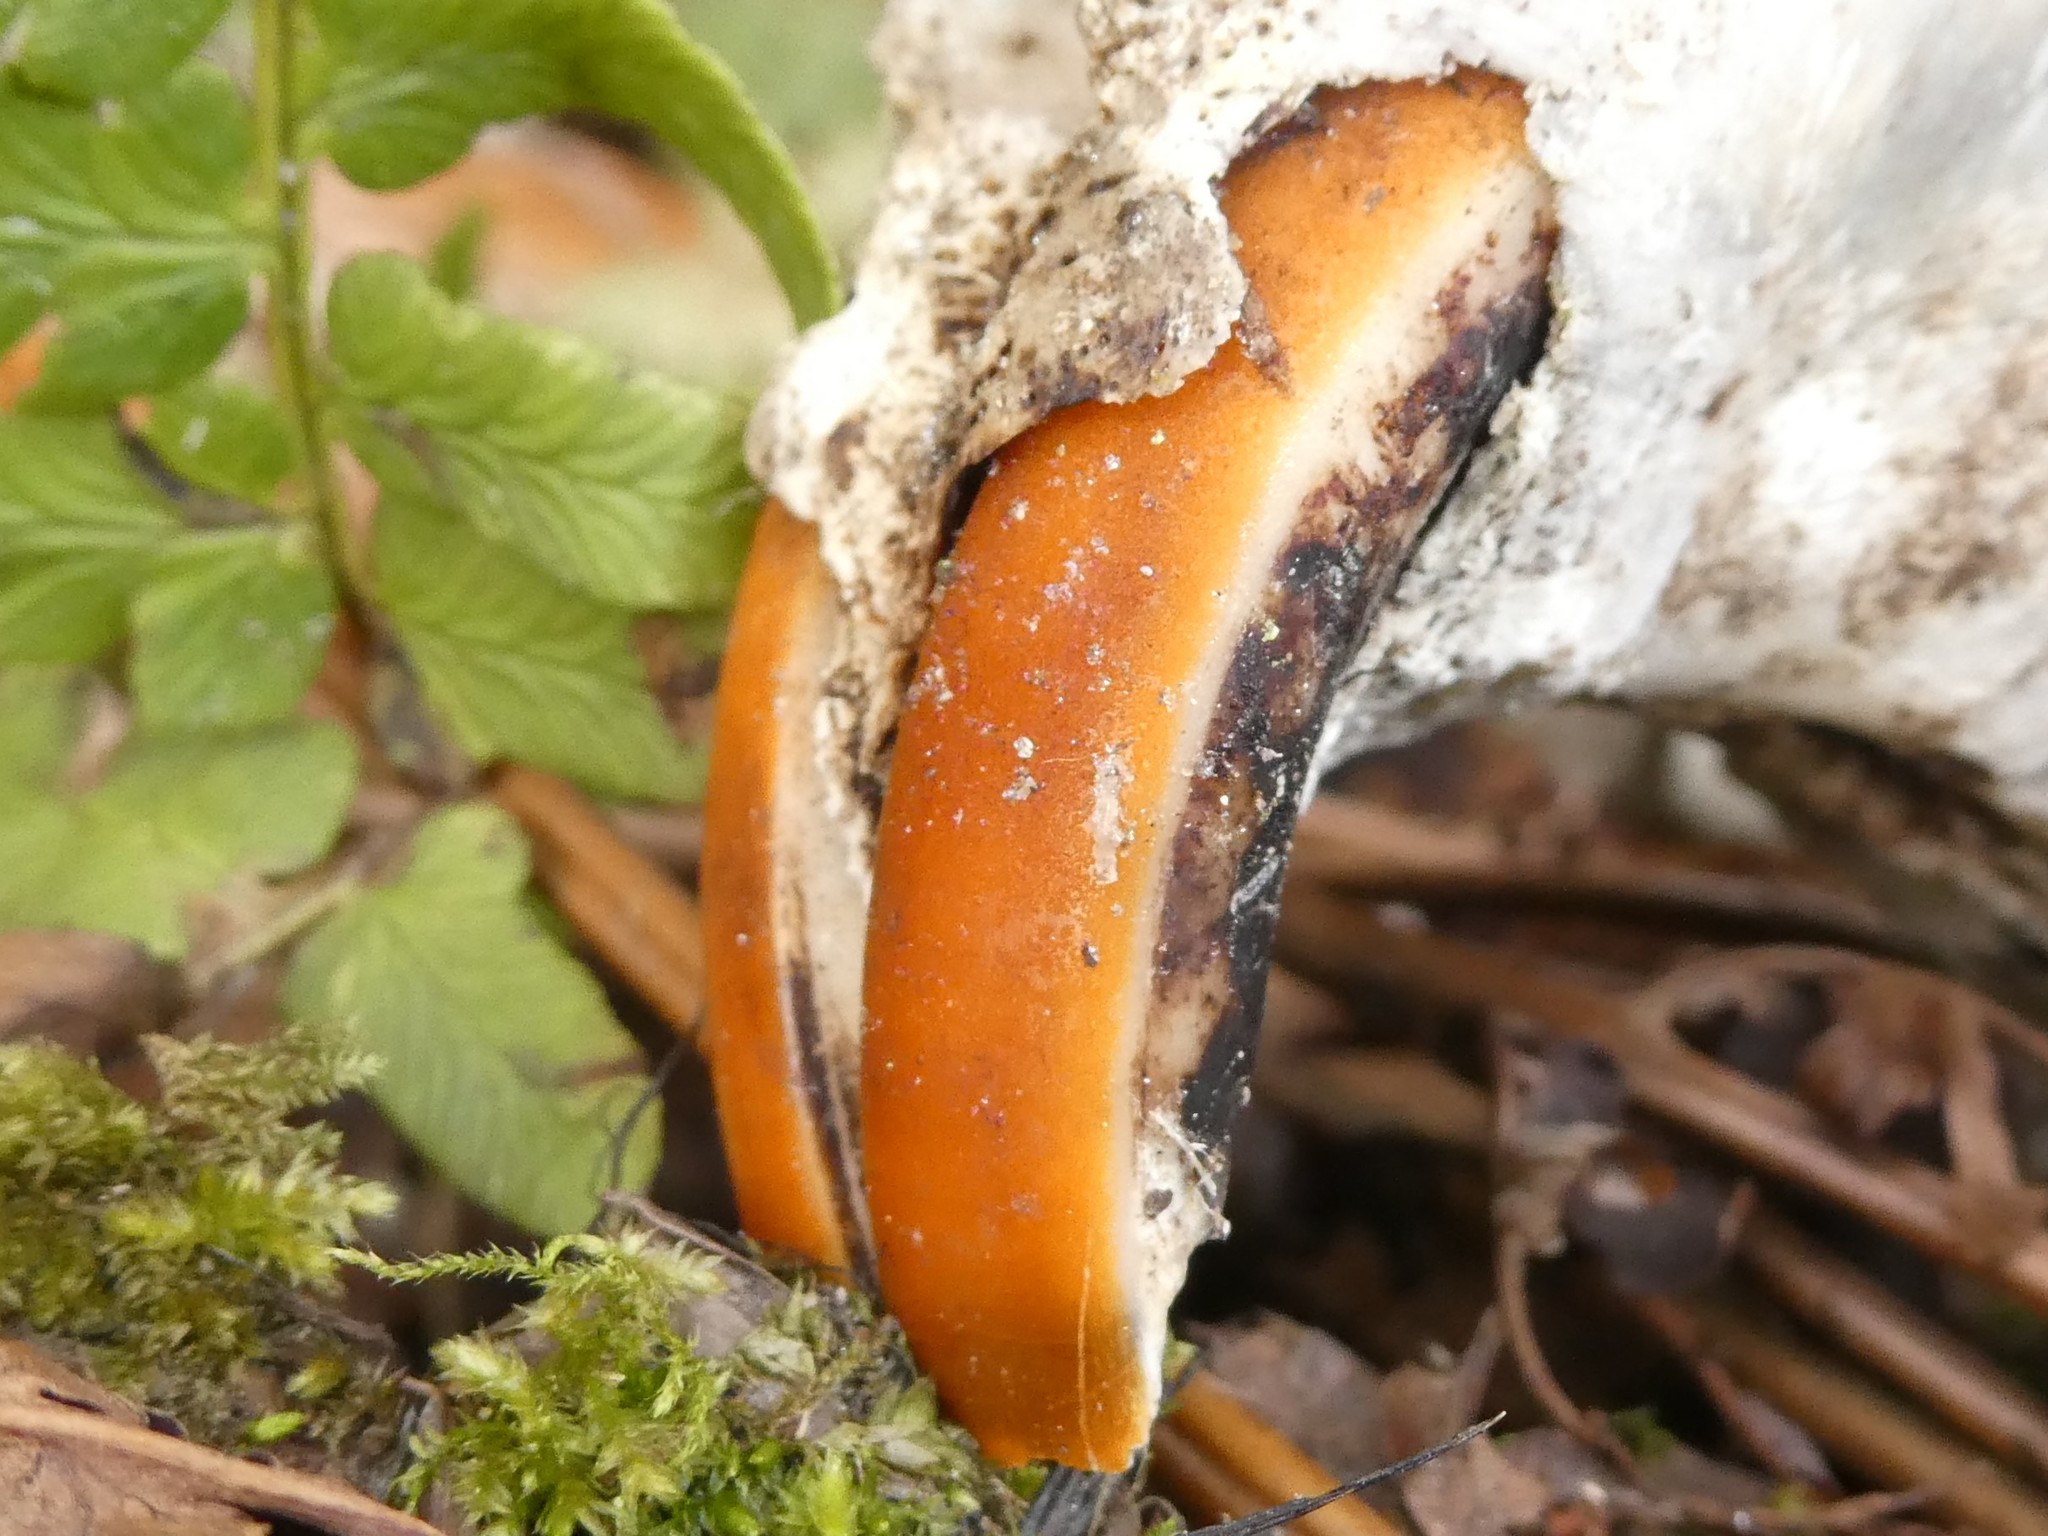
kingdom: Animalia
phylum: Chordata
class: Mammalia
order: Rodentia
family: Castoridae
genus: Castor
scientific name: Castor canadensis
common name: American beaver
